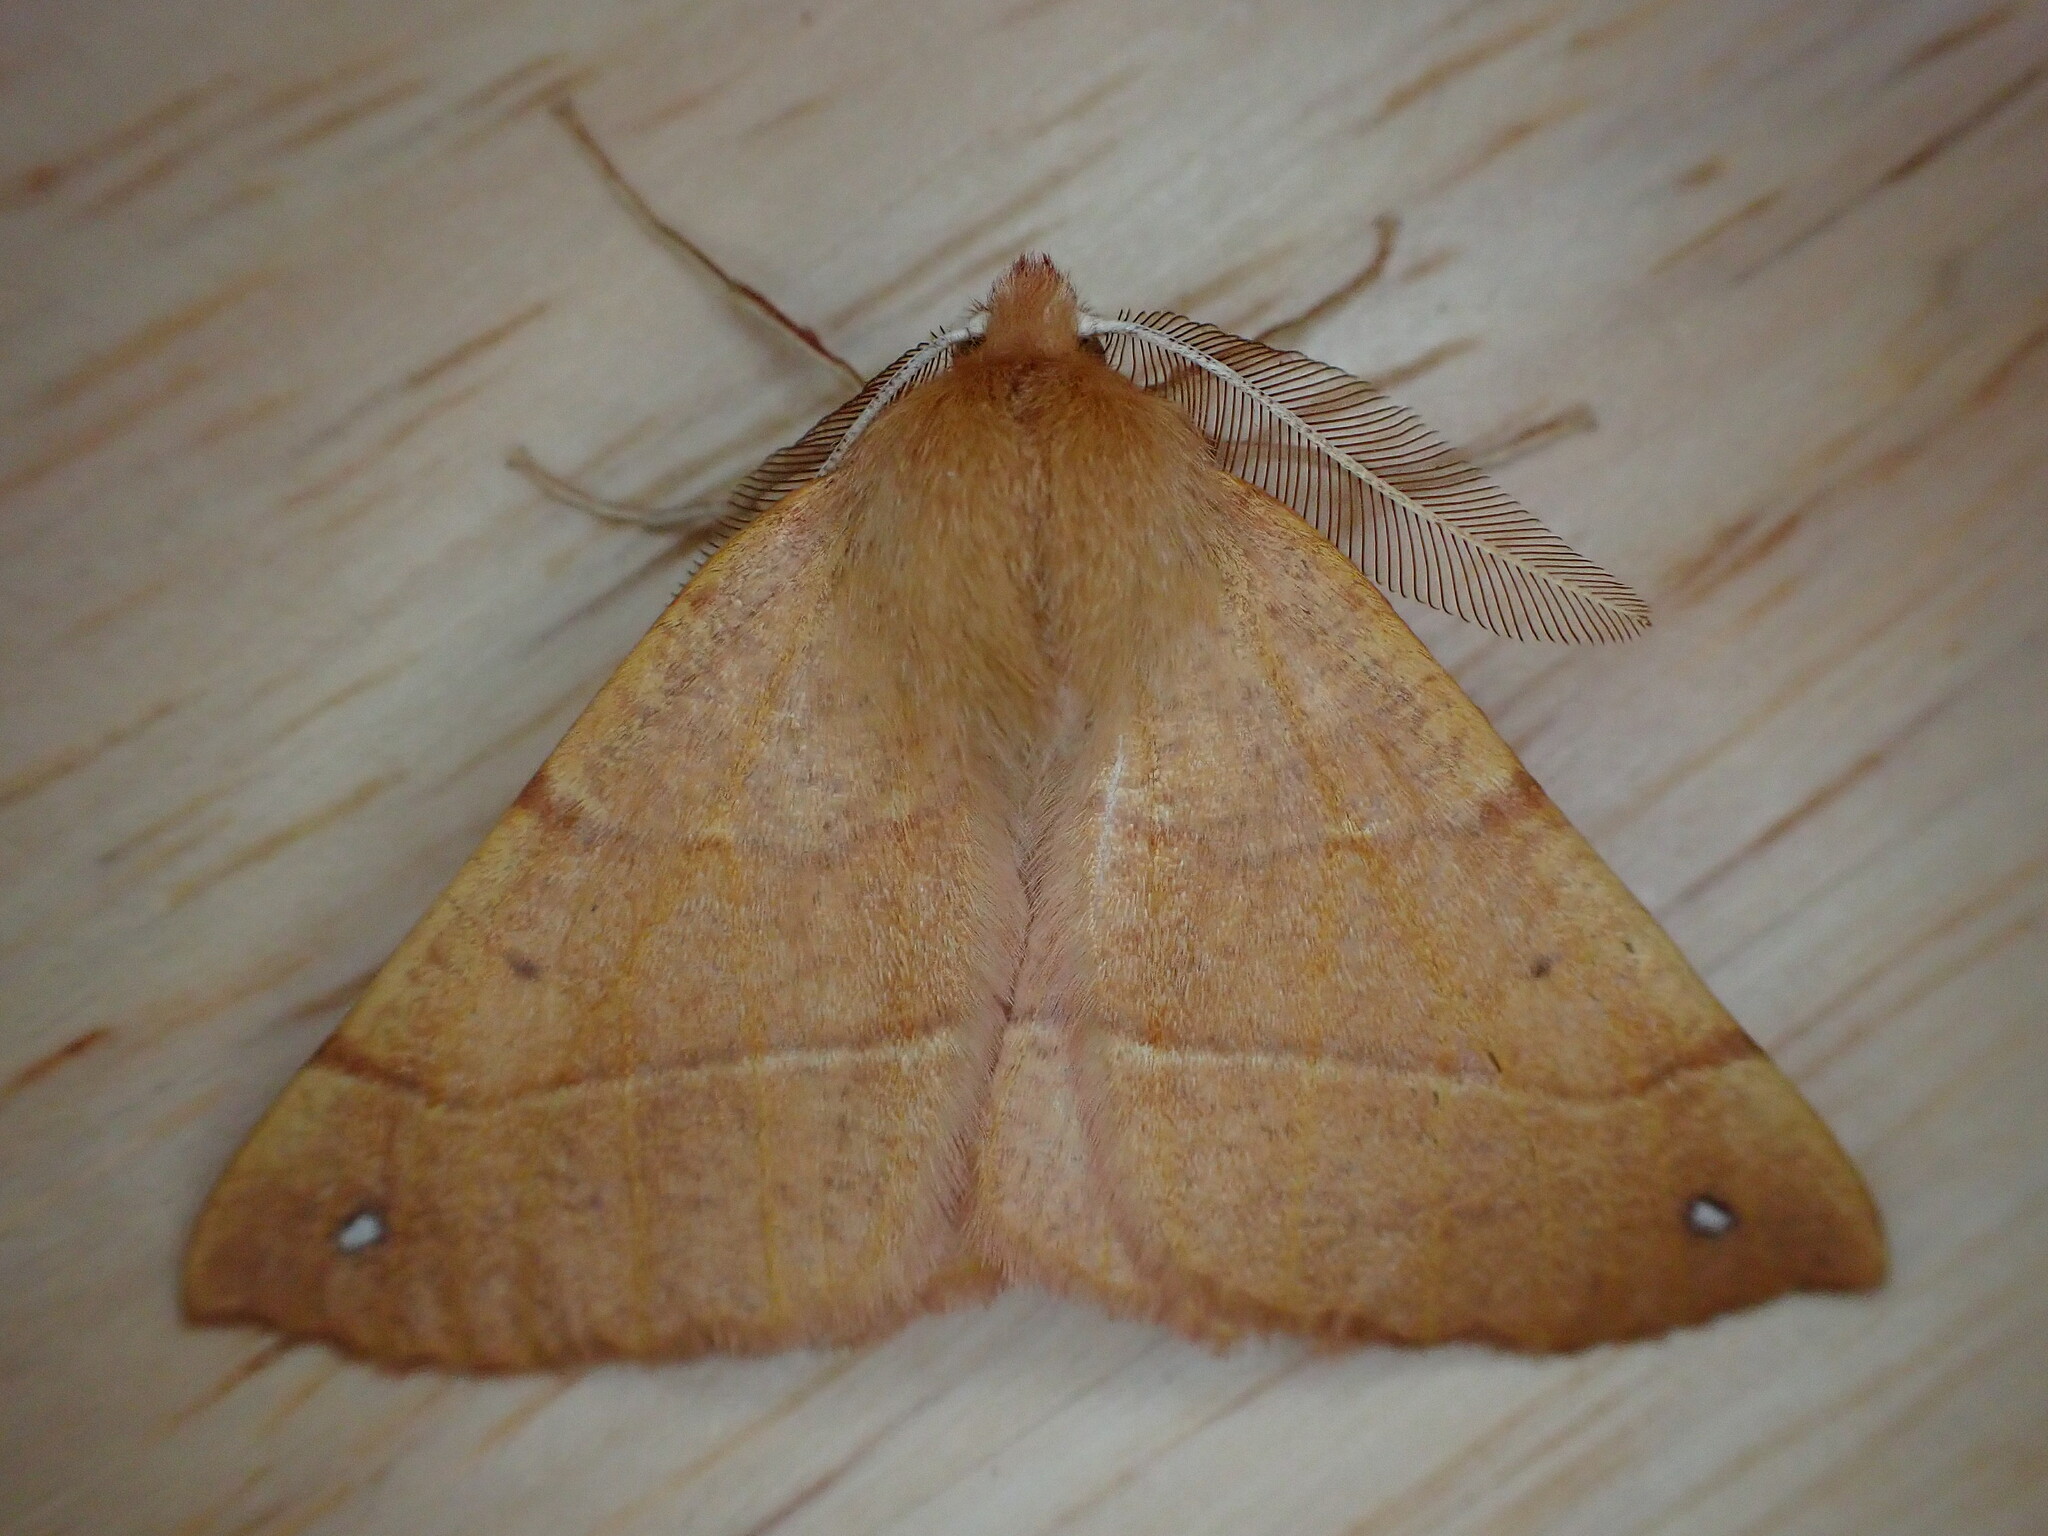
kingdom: Animalia
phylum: Arthropoda
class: Insecta
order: Lepidoptera
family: Geometridae
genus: Colotois
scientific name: Colotois pennaria
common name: Feathered thorn
